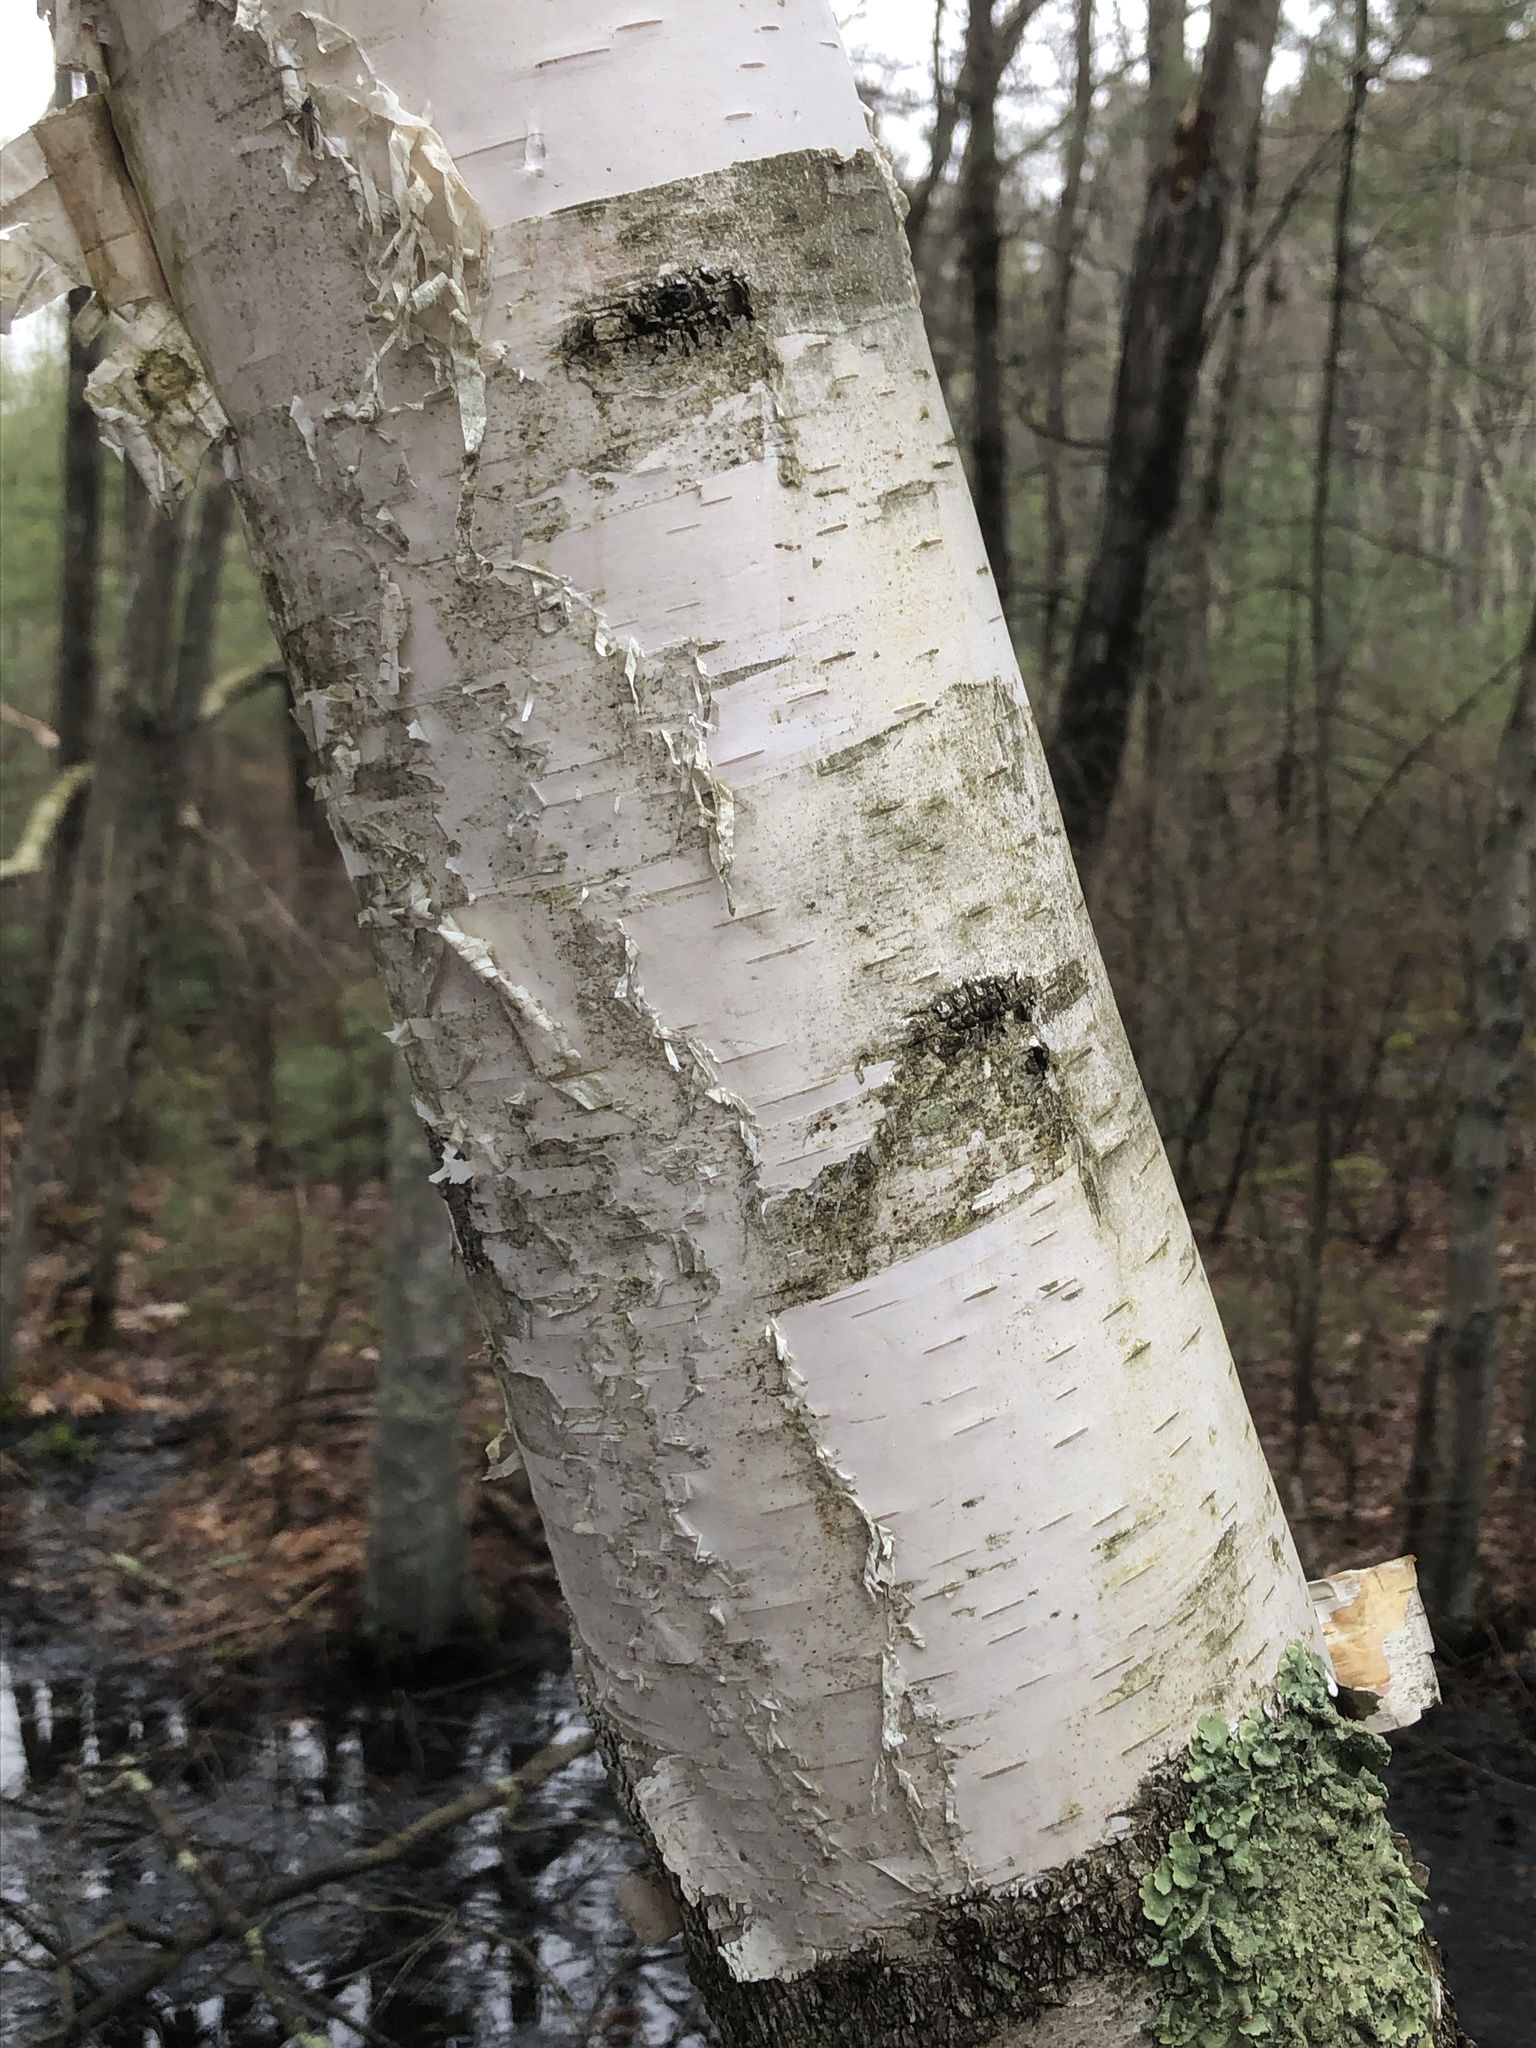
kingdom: Plantae
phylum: Tracheophyta
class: Magnoliopsida
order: Fagales
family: Betulaceae
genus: Betula
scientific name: Betula papyrifera
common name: Paper birch
